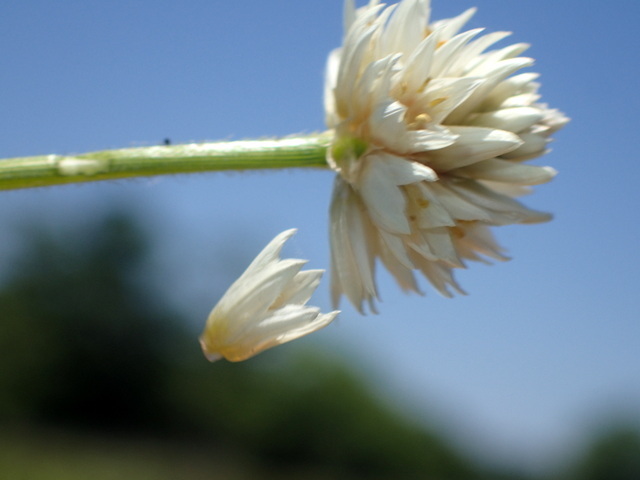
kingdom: Plantae
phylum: Tracheophyta
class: Magnoliopsida
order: Caryophyllales
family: Amaranthaceae
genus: Alternanthera
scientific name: Alternanthera philoxeroides
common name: Alligatorweed
